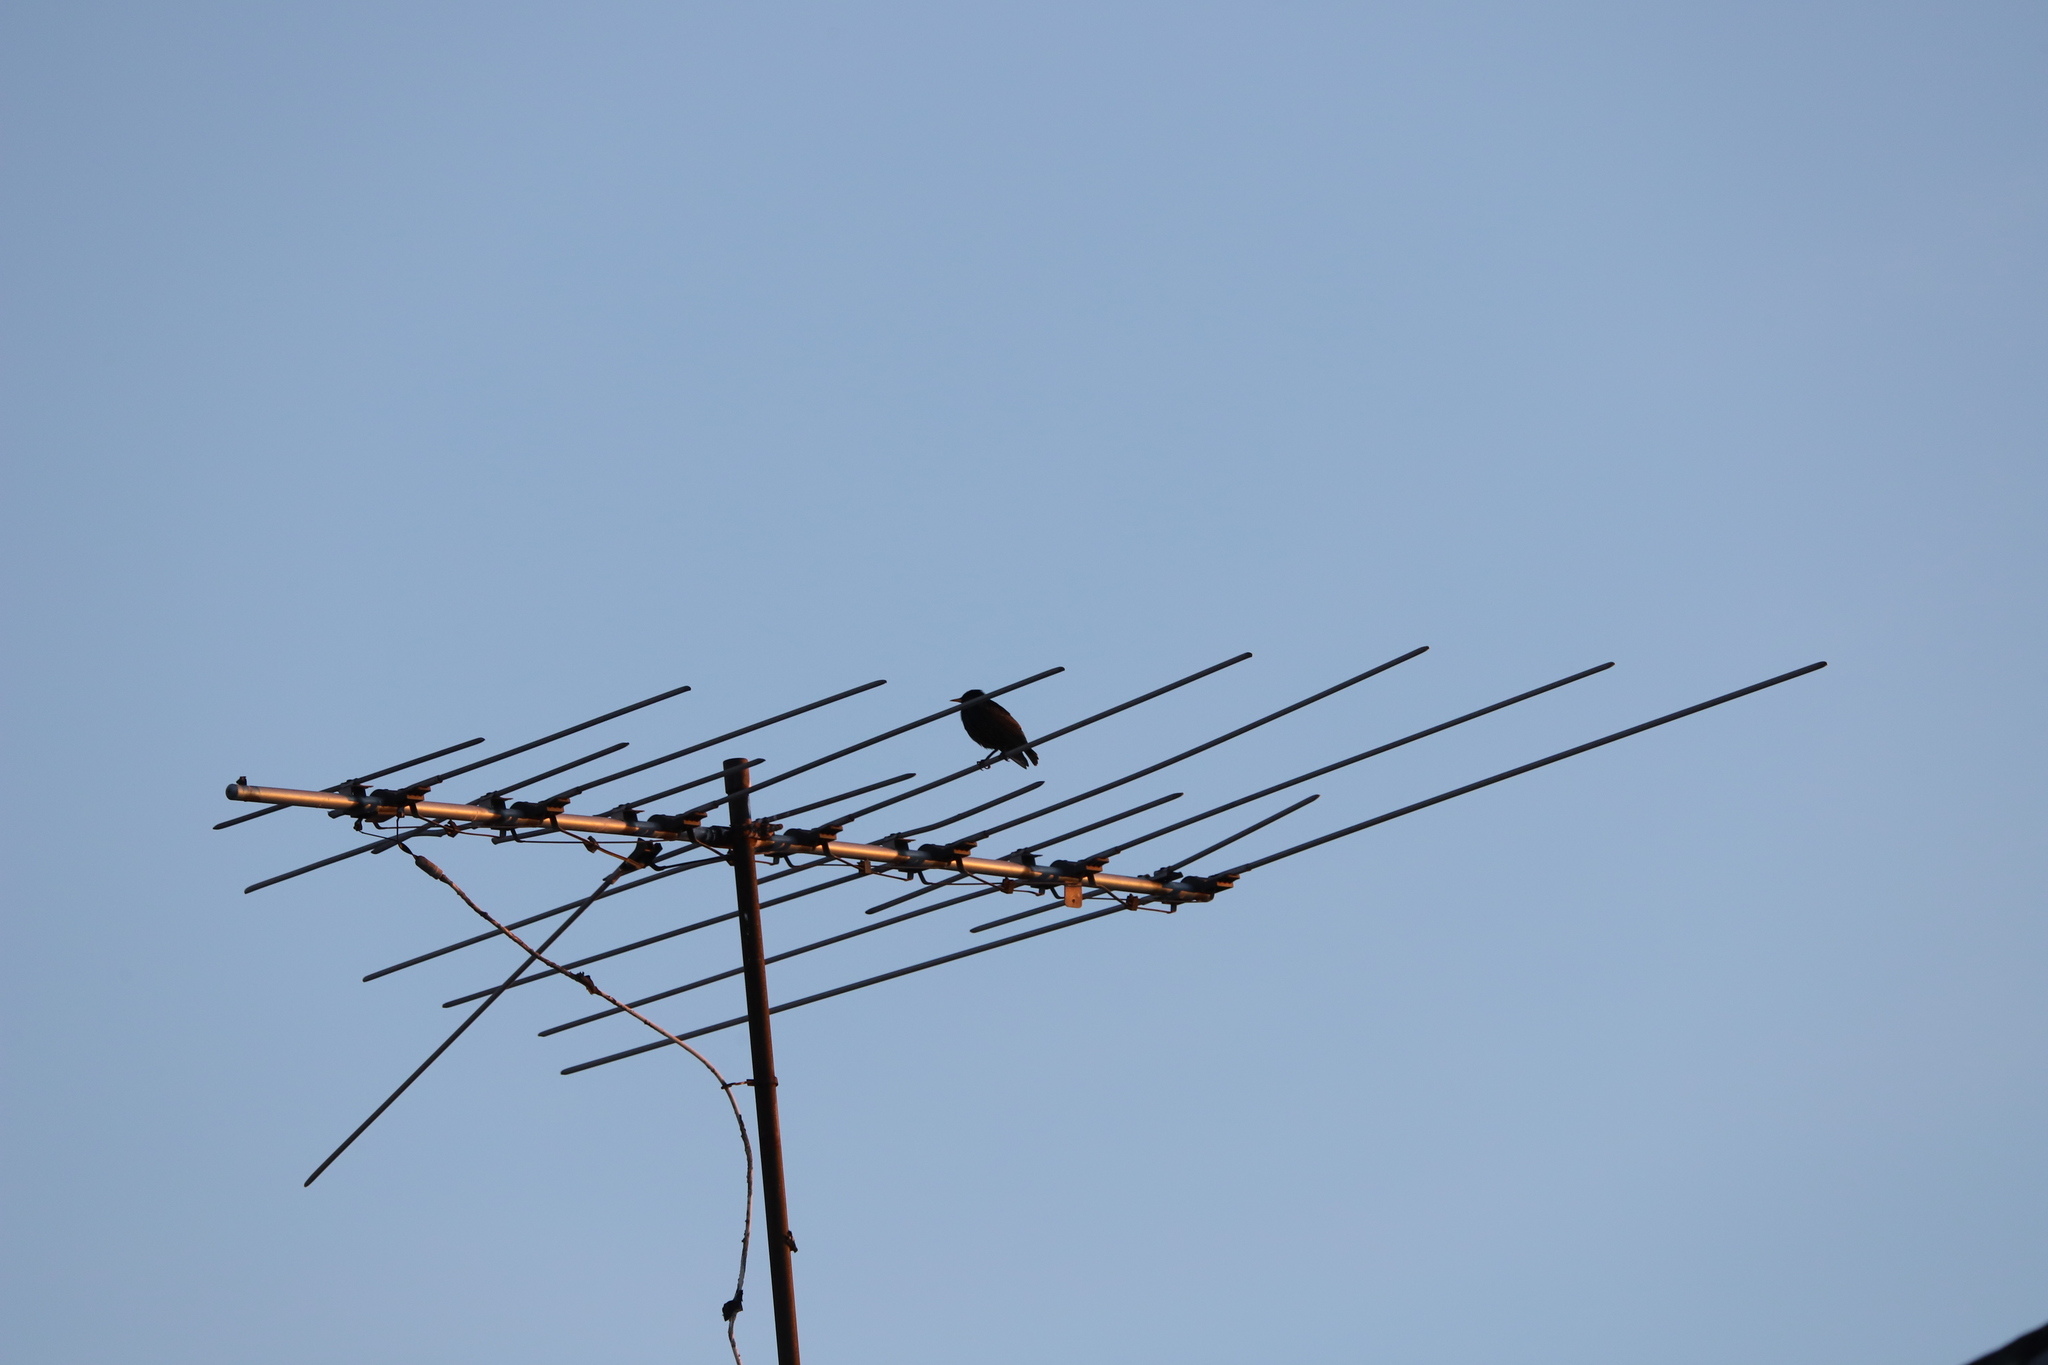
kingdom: Animalia
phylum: Chordata
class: Aves
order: Passeriformes
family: Sturnidae
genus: Sturnus
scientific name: Sturnus vulgaris
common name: Common starling
